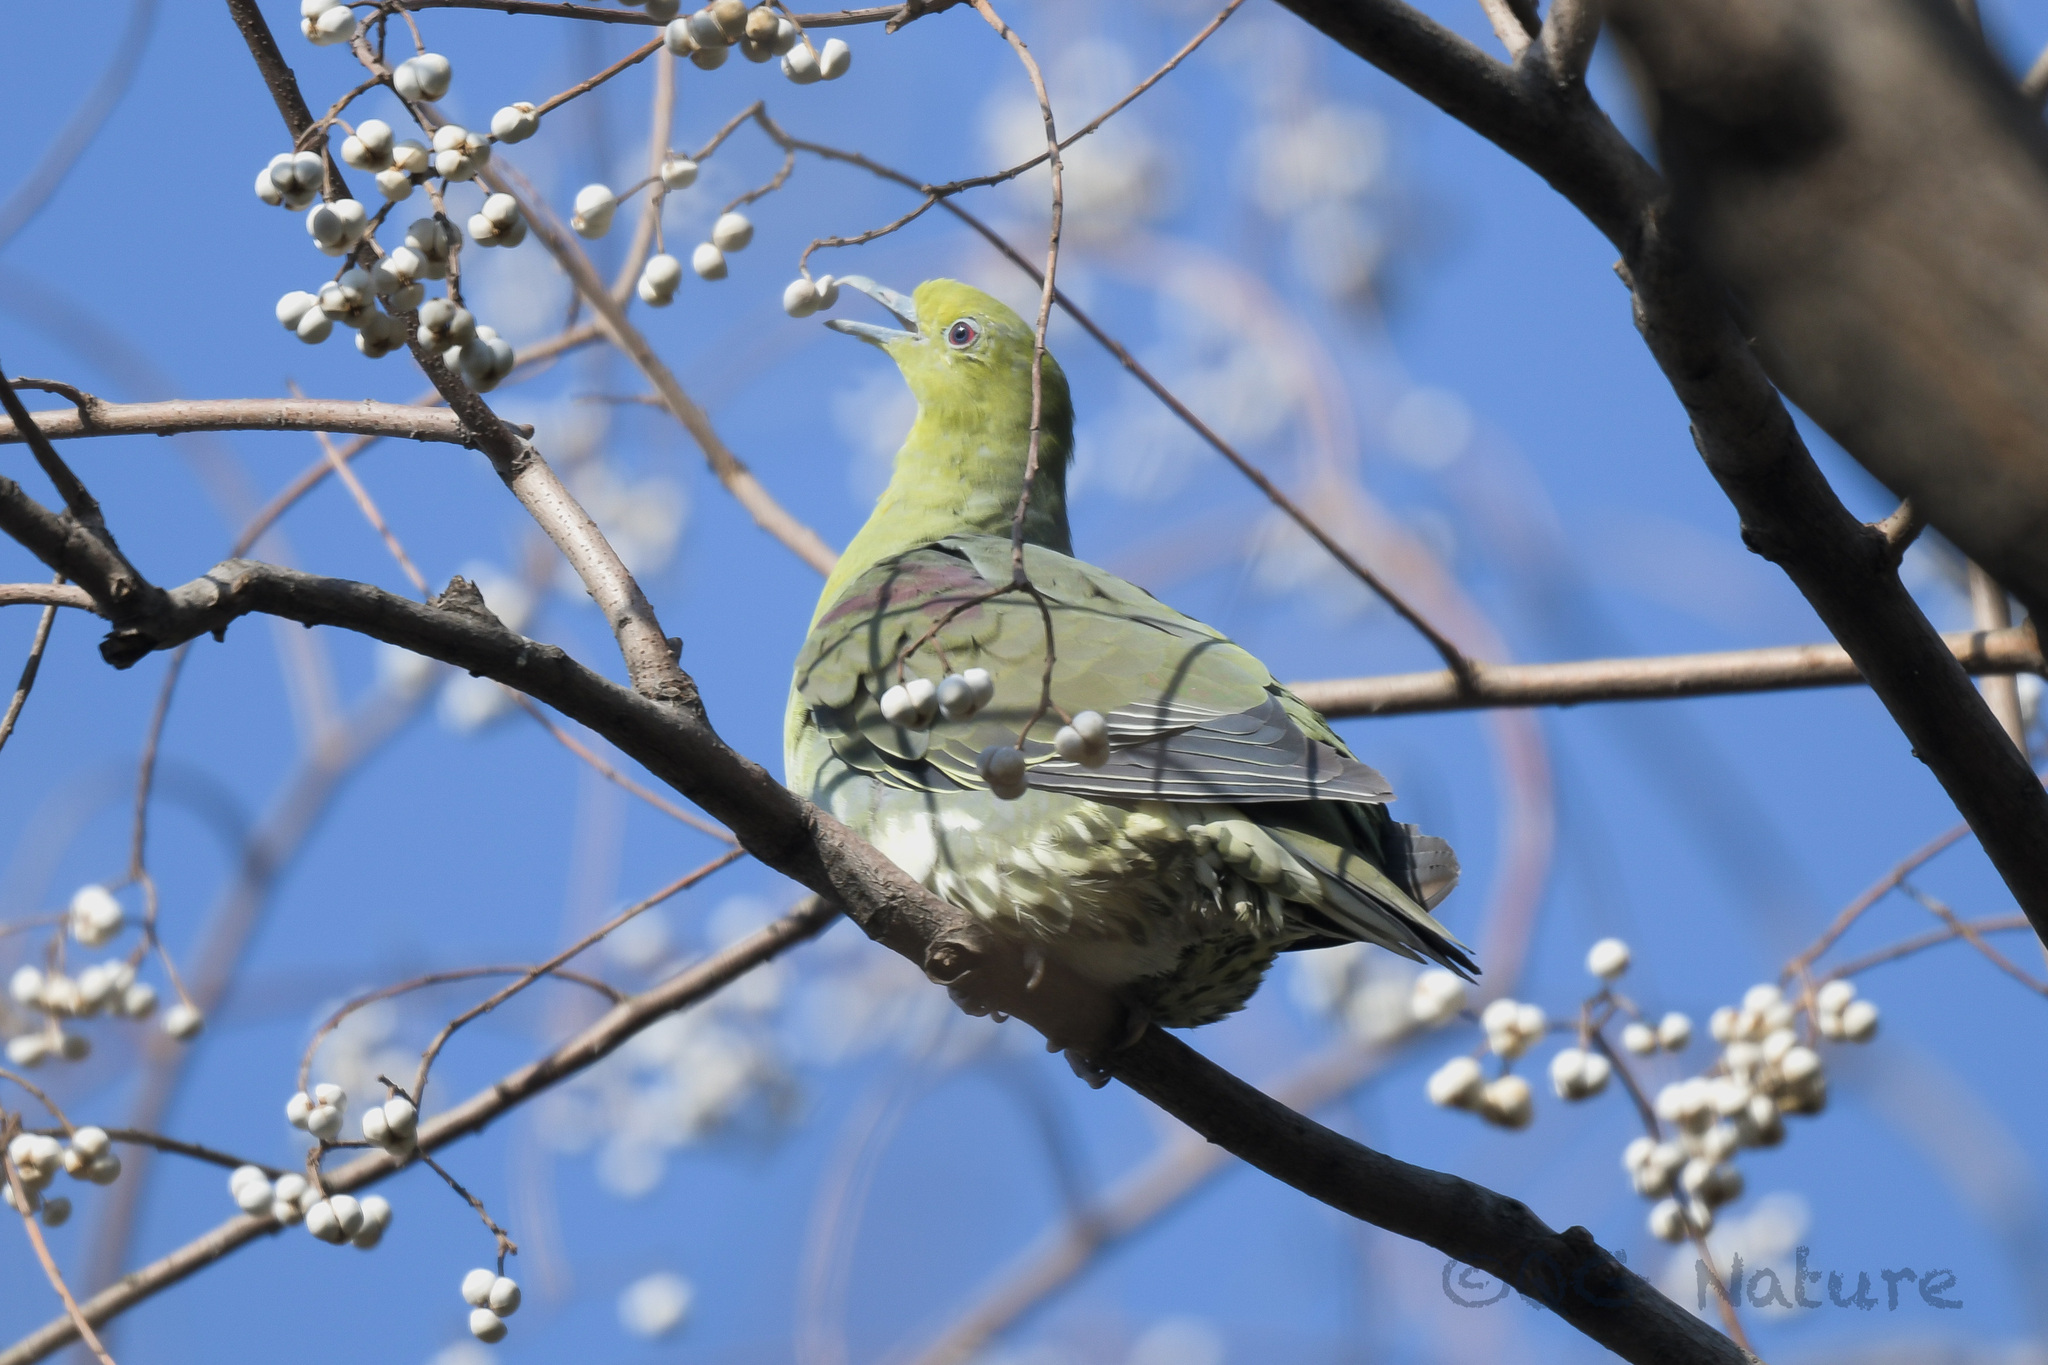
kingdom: Animalia
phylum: Chordata
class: Aves
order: Columbiformes
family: Columbidae
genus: Treron
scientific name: Treron sieboldii
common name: White-bellied green pigeon
